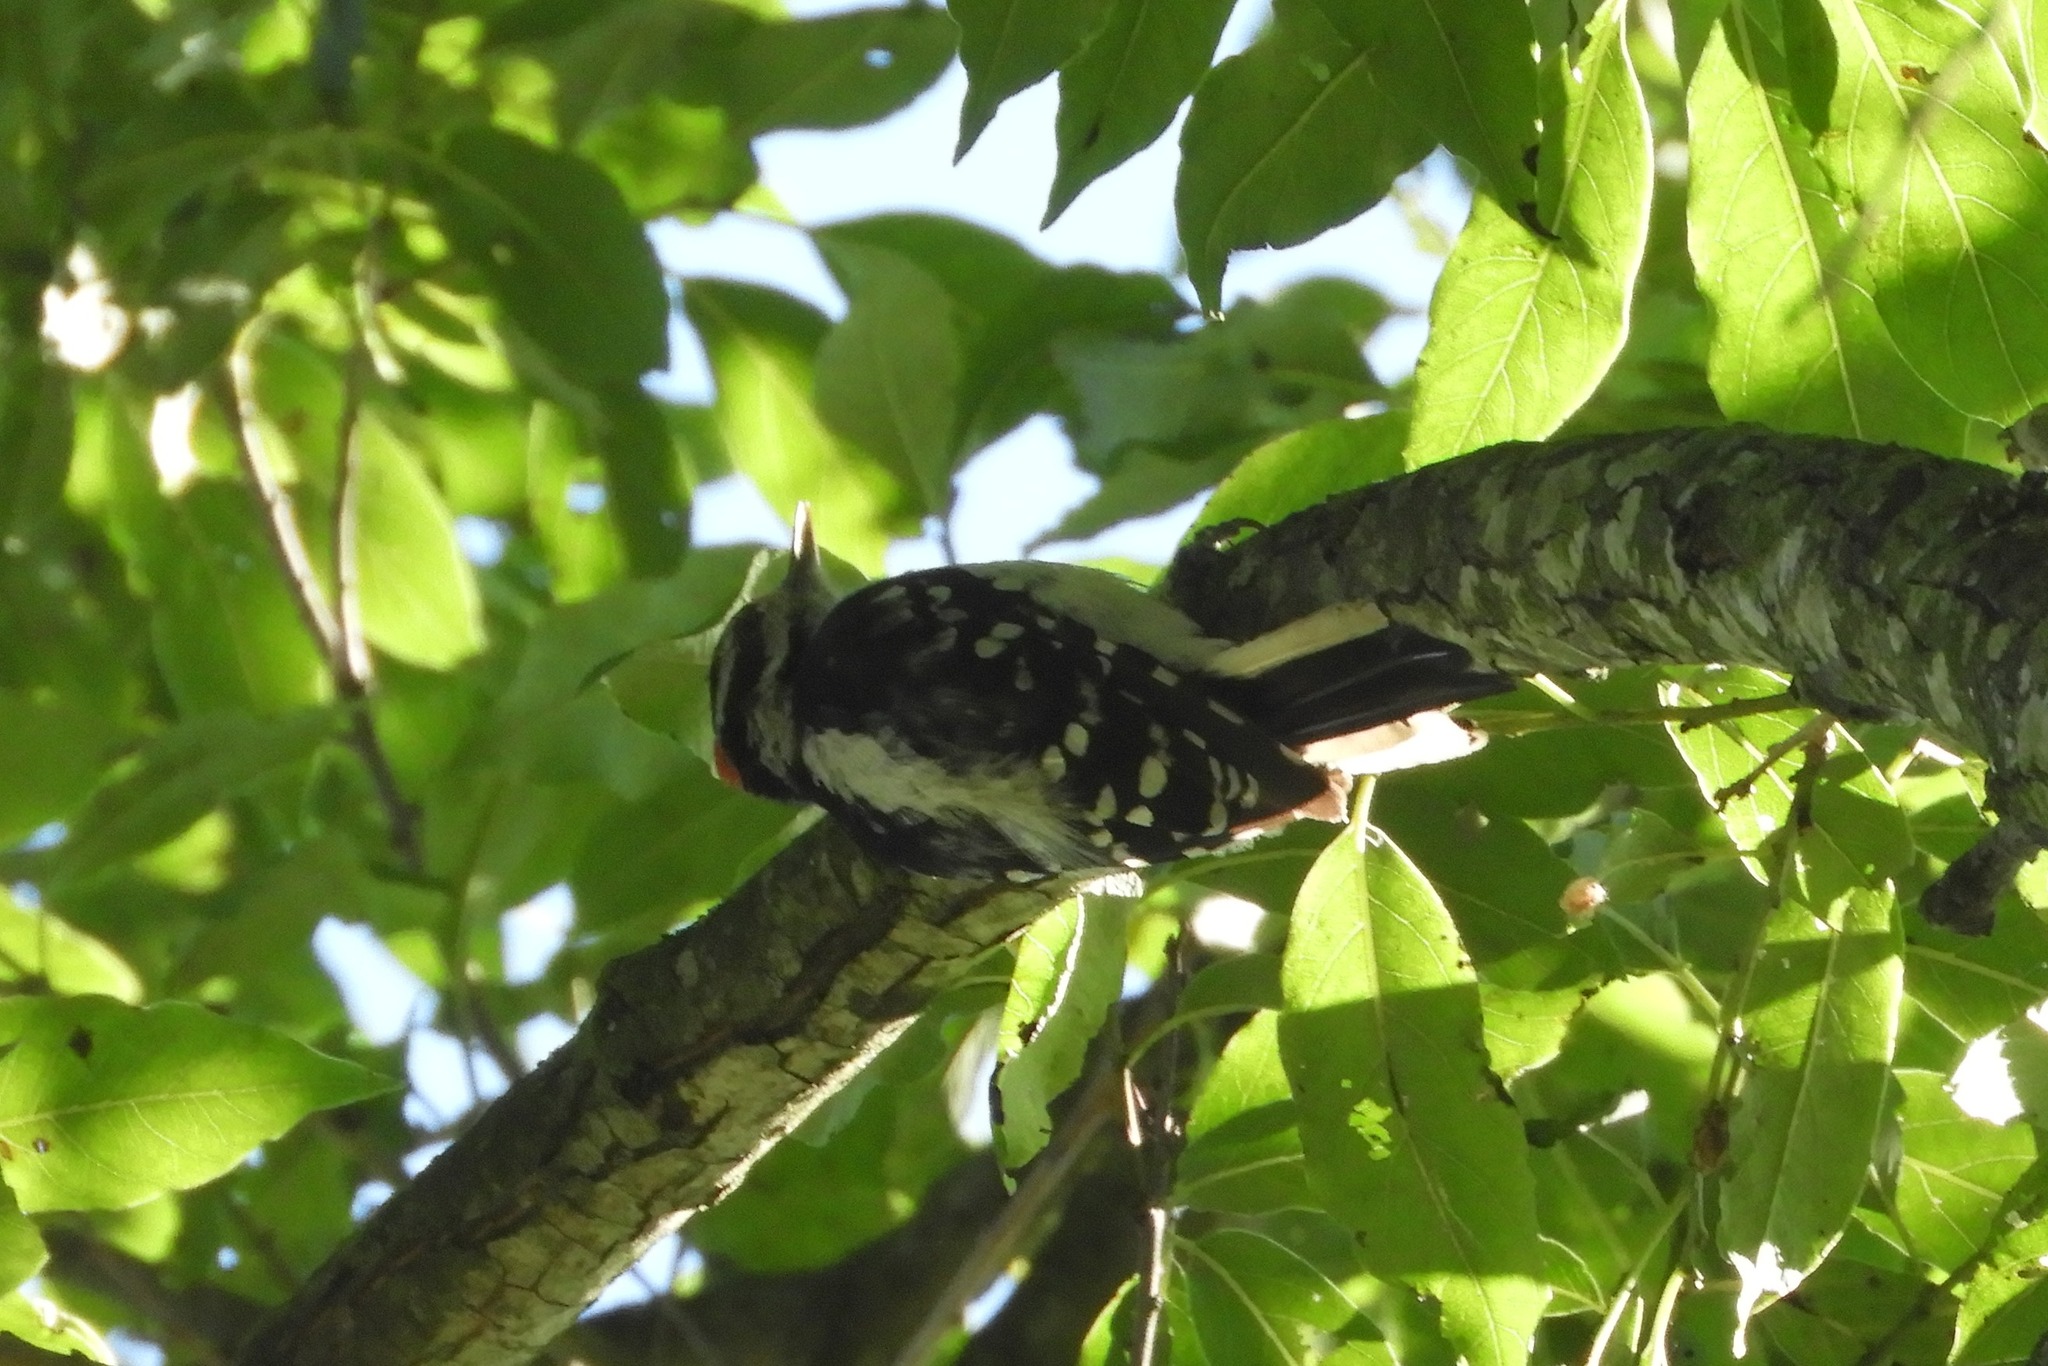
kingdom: Animalia
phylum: Chordata
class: Aves
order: Piciformes
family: Picidae
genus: Dryobates
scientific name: Dryobates pubescens
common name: Downy woodpecker
